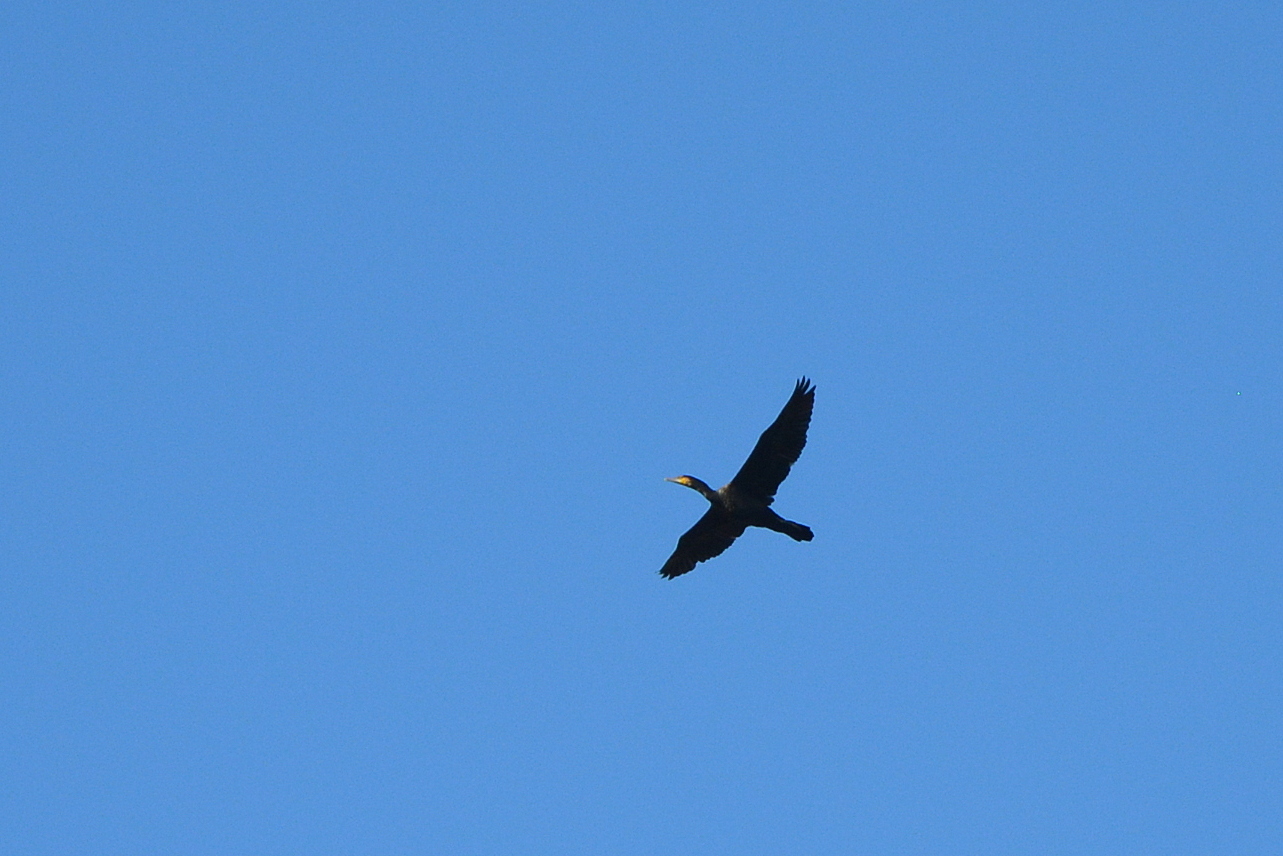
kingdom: Animalia
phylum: Chordata
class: Aves
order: Suliformes
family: Phalacrocoracidae
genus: Phalacrocorax
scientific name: Phalacrocorax carbo
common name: Great cormorant
